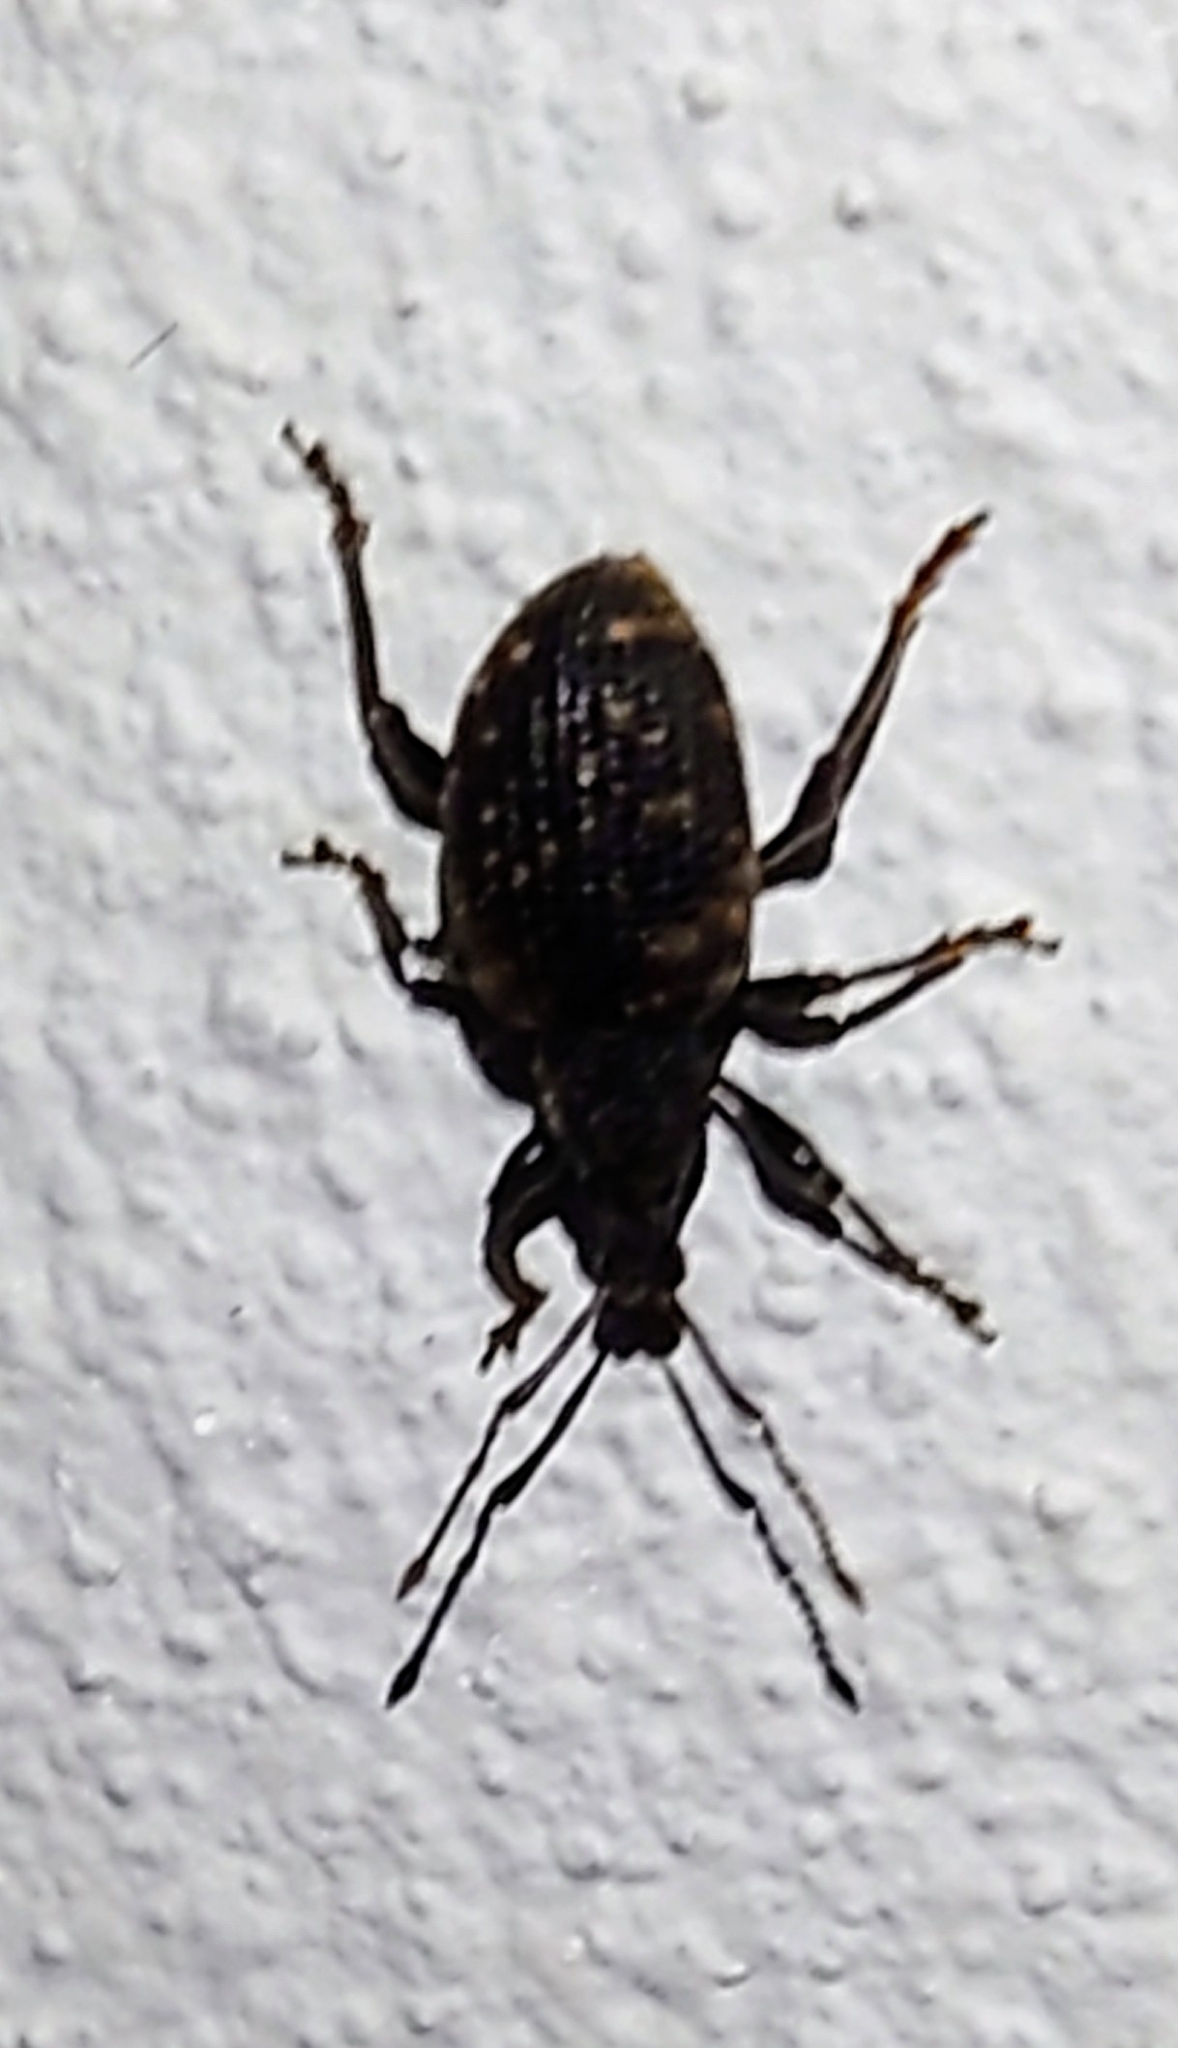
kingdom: Animalia
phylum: Arthropoda
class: Insecta
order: Coleoptera
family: Curculionidae
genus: Otiorhynchus
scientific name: Otiorhynchus sulcatus
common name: Black vine weevil
